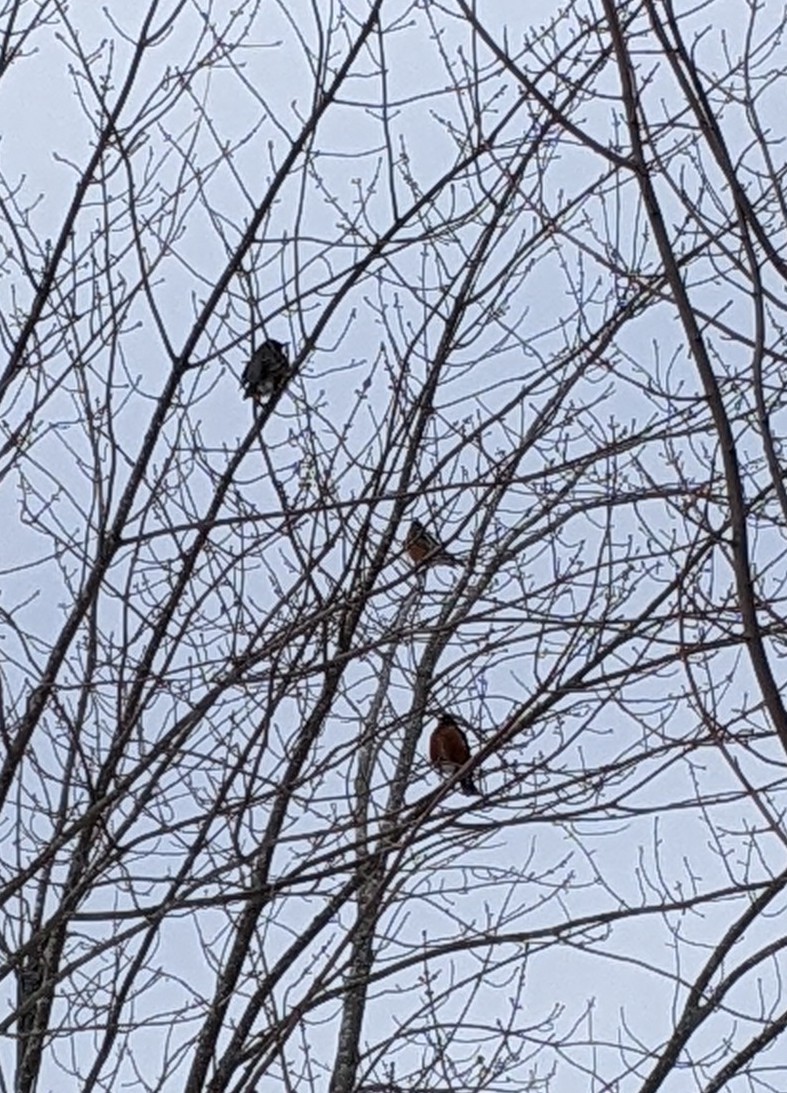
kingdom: Animalia
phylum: Chordata
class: Aves
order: Passeriformes
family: Turdidae
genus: Turdus
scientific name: Turdus migratorius
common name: American robin
